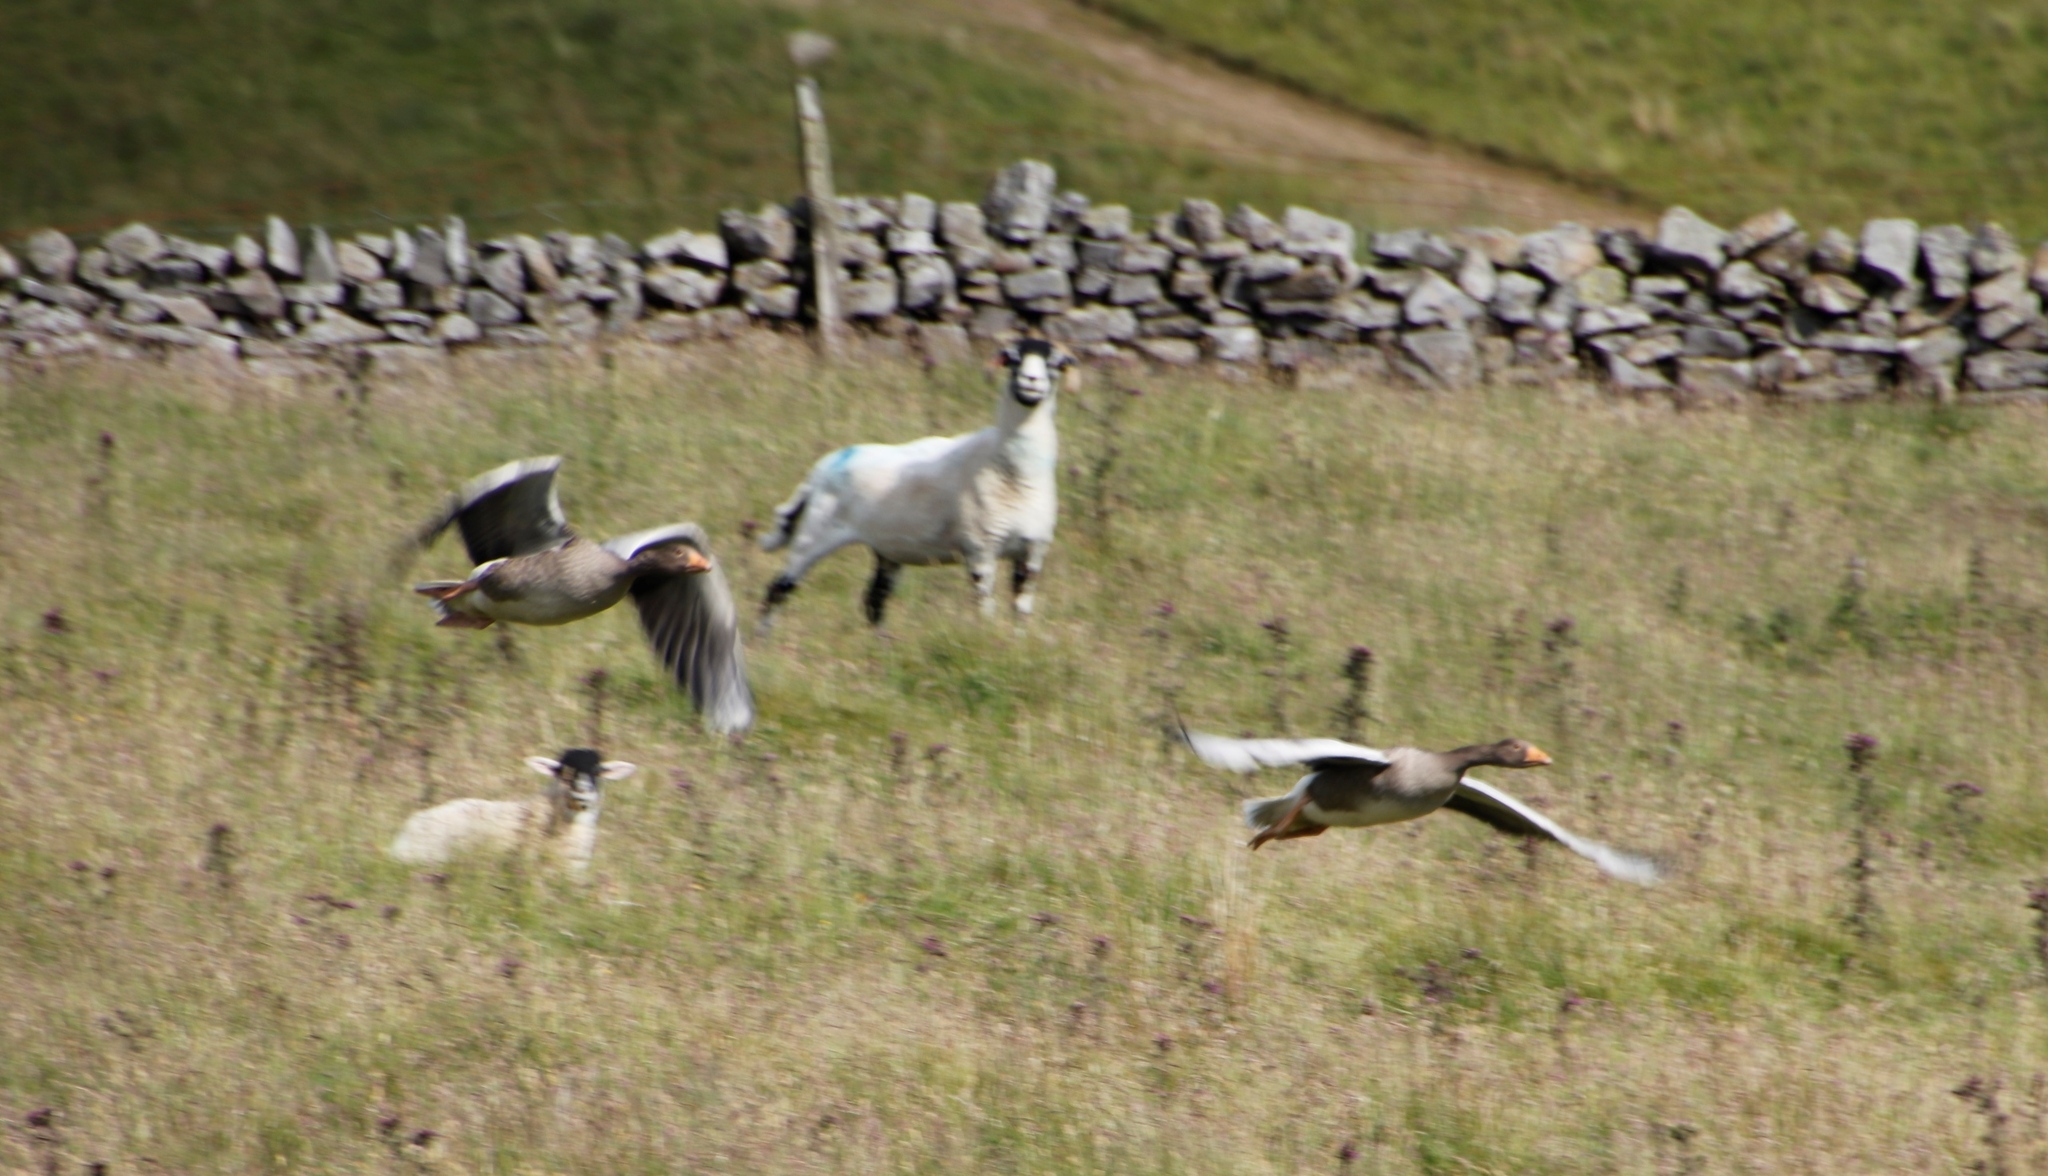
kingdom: Animalia
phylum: Chordata
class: Aves
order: Anseriformes
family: Anatidae
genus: Anser
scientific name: Anser anser
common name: Greylag goose
